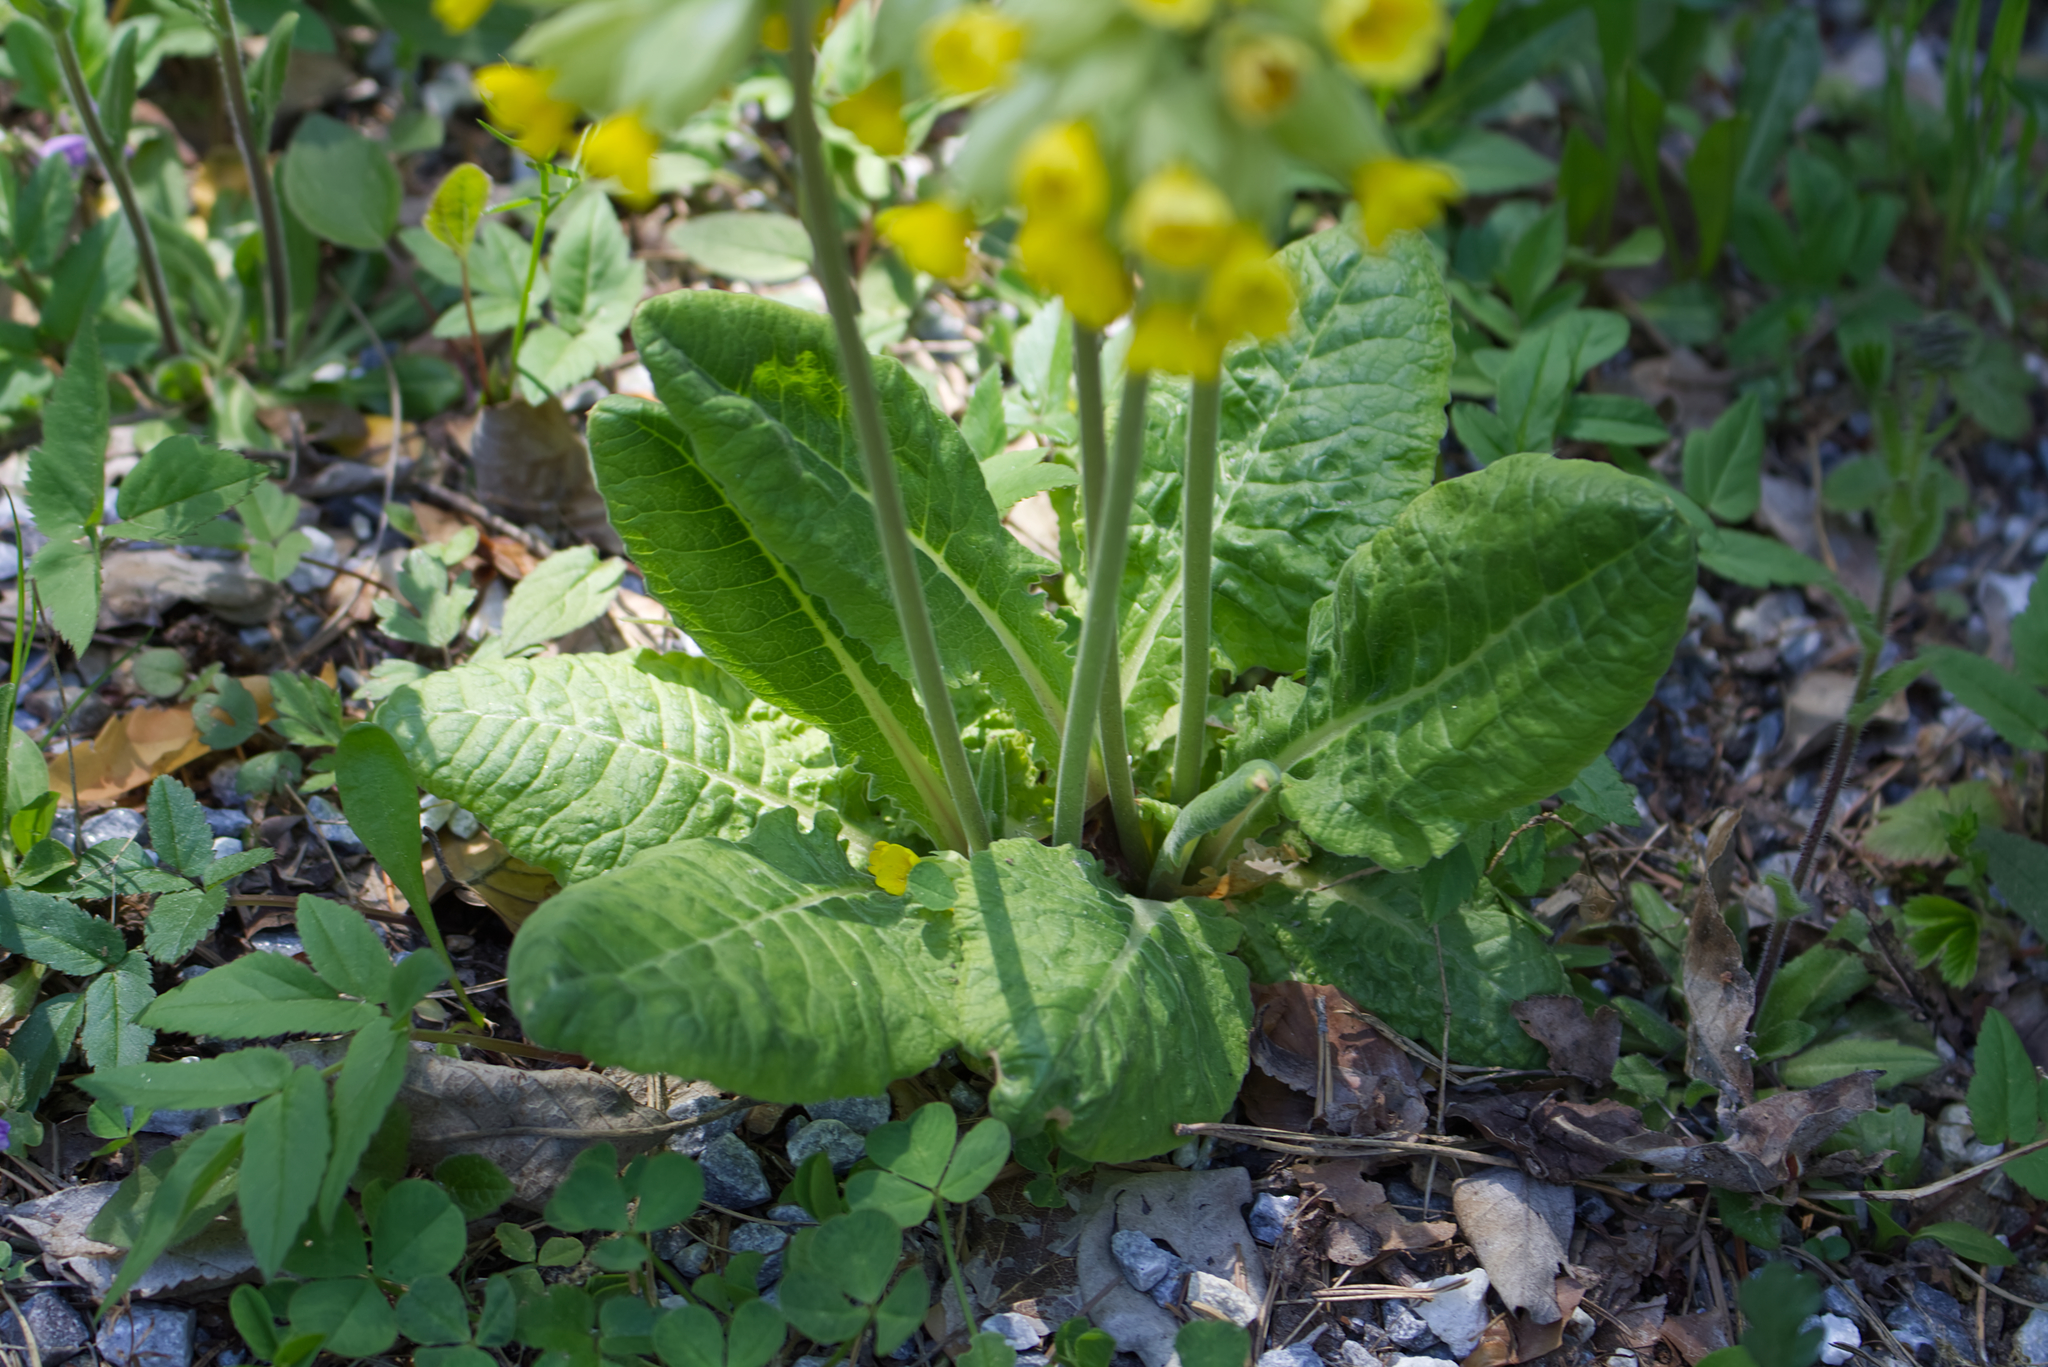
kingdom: Plantae
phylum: Tracheophyta
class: Magnoliopsida
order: Ericales
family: Primulaceae
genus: Primula
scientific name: Primula veris
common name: Cowslip
